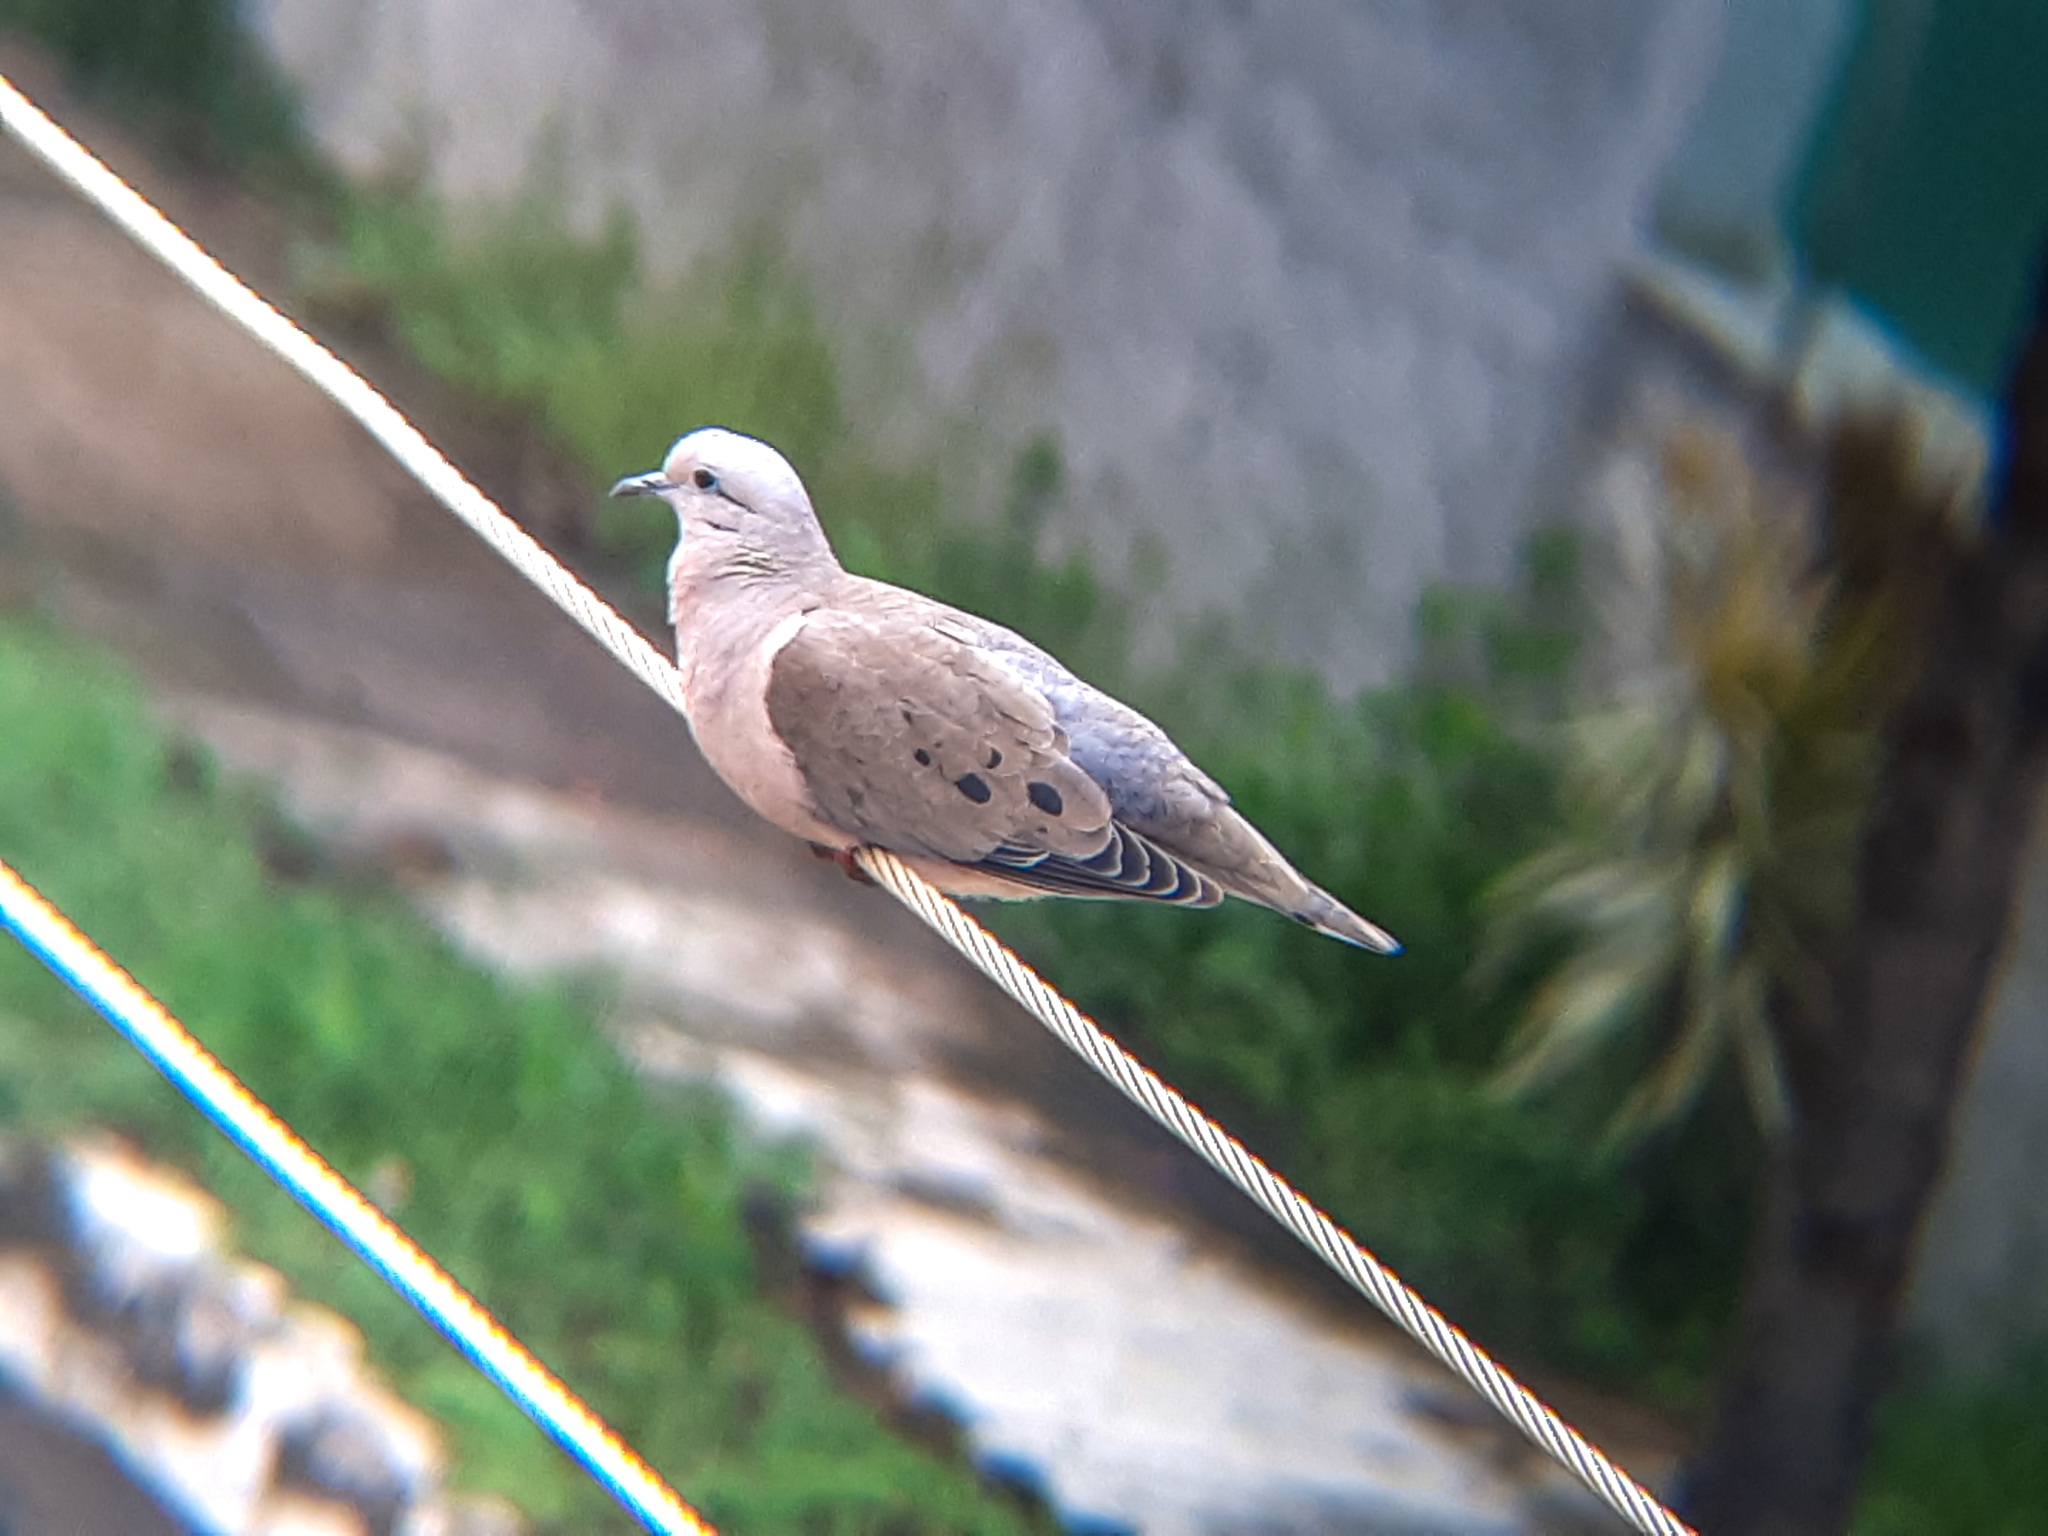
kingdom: Animalia
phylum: Chordata
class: Aves
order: Columbiformes
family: Columbidae
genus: Zenaida
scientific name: Zenaida auriculata
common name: Eared dove
